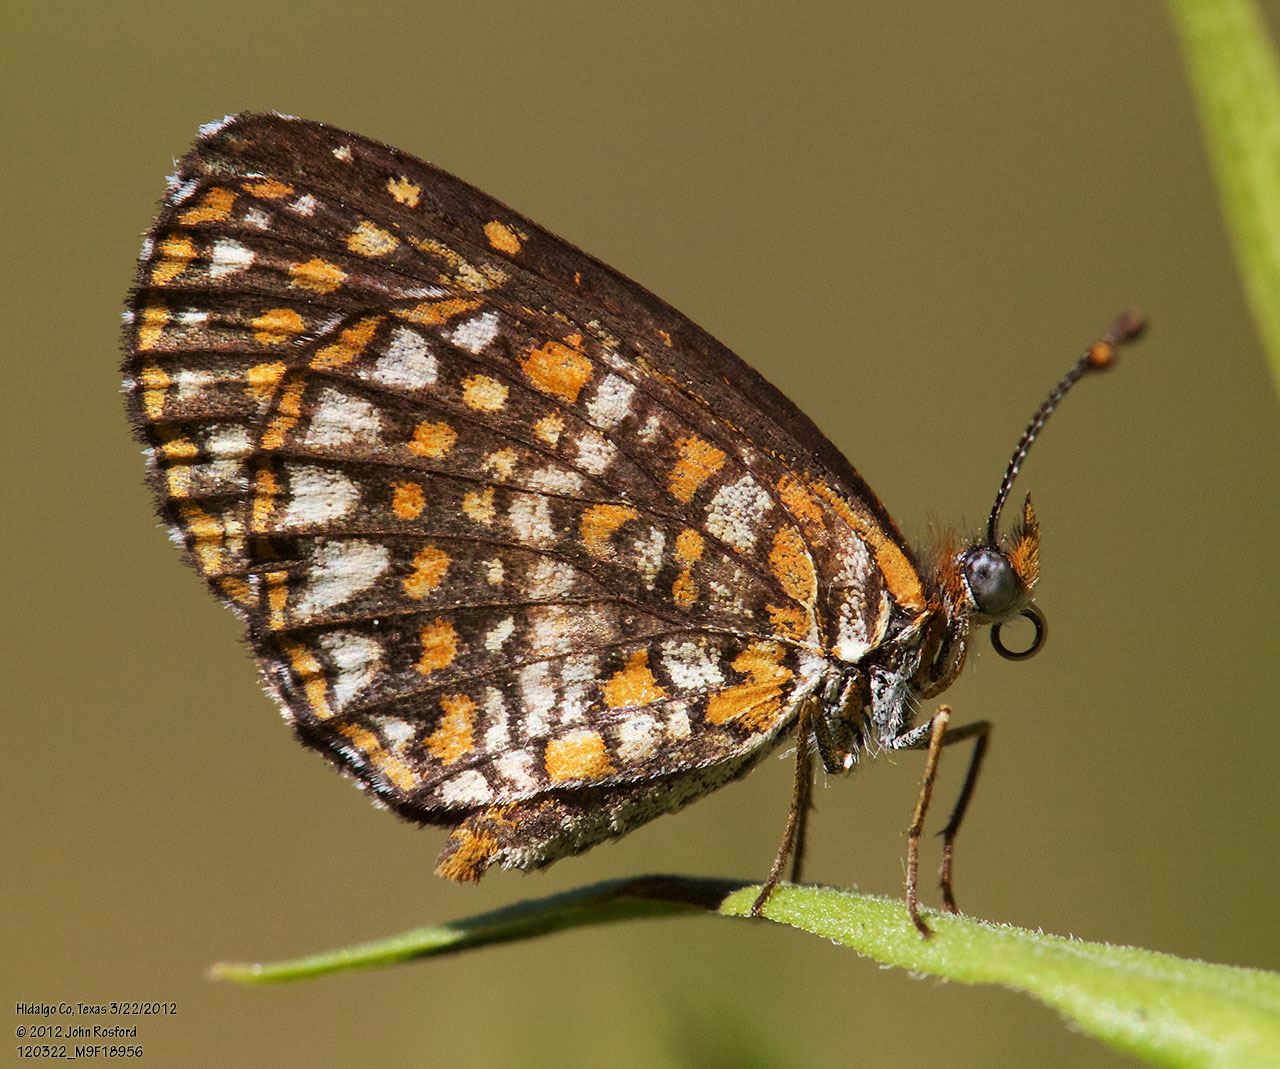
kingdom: Animalia
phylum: Arthropoda
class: Insecta
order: Lepidoptera
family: Nymphalidae
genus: Texola
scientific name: Texola elada
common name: Elada checkerspot
